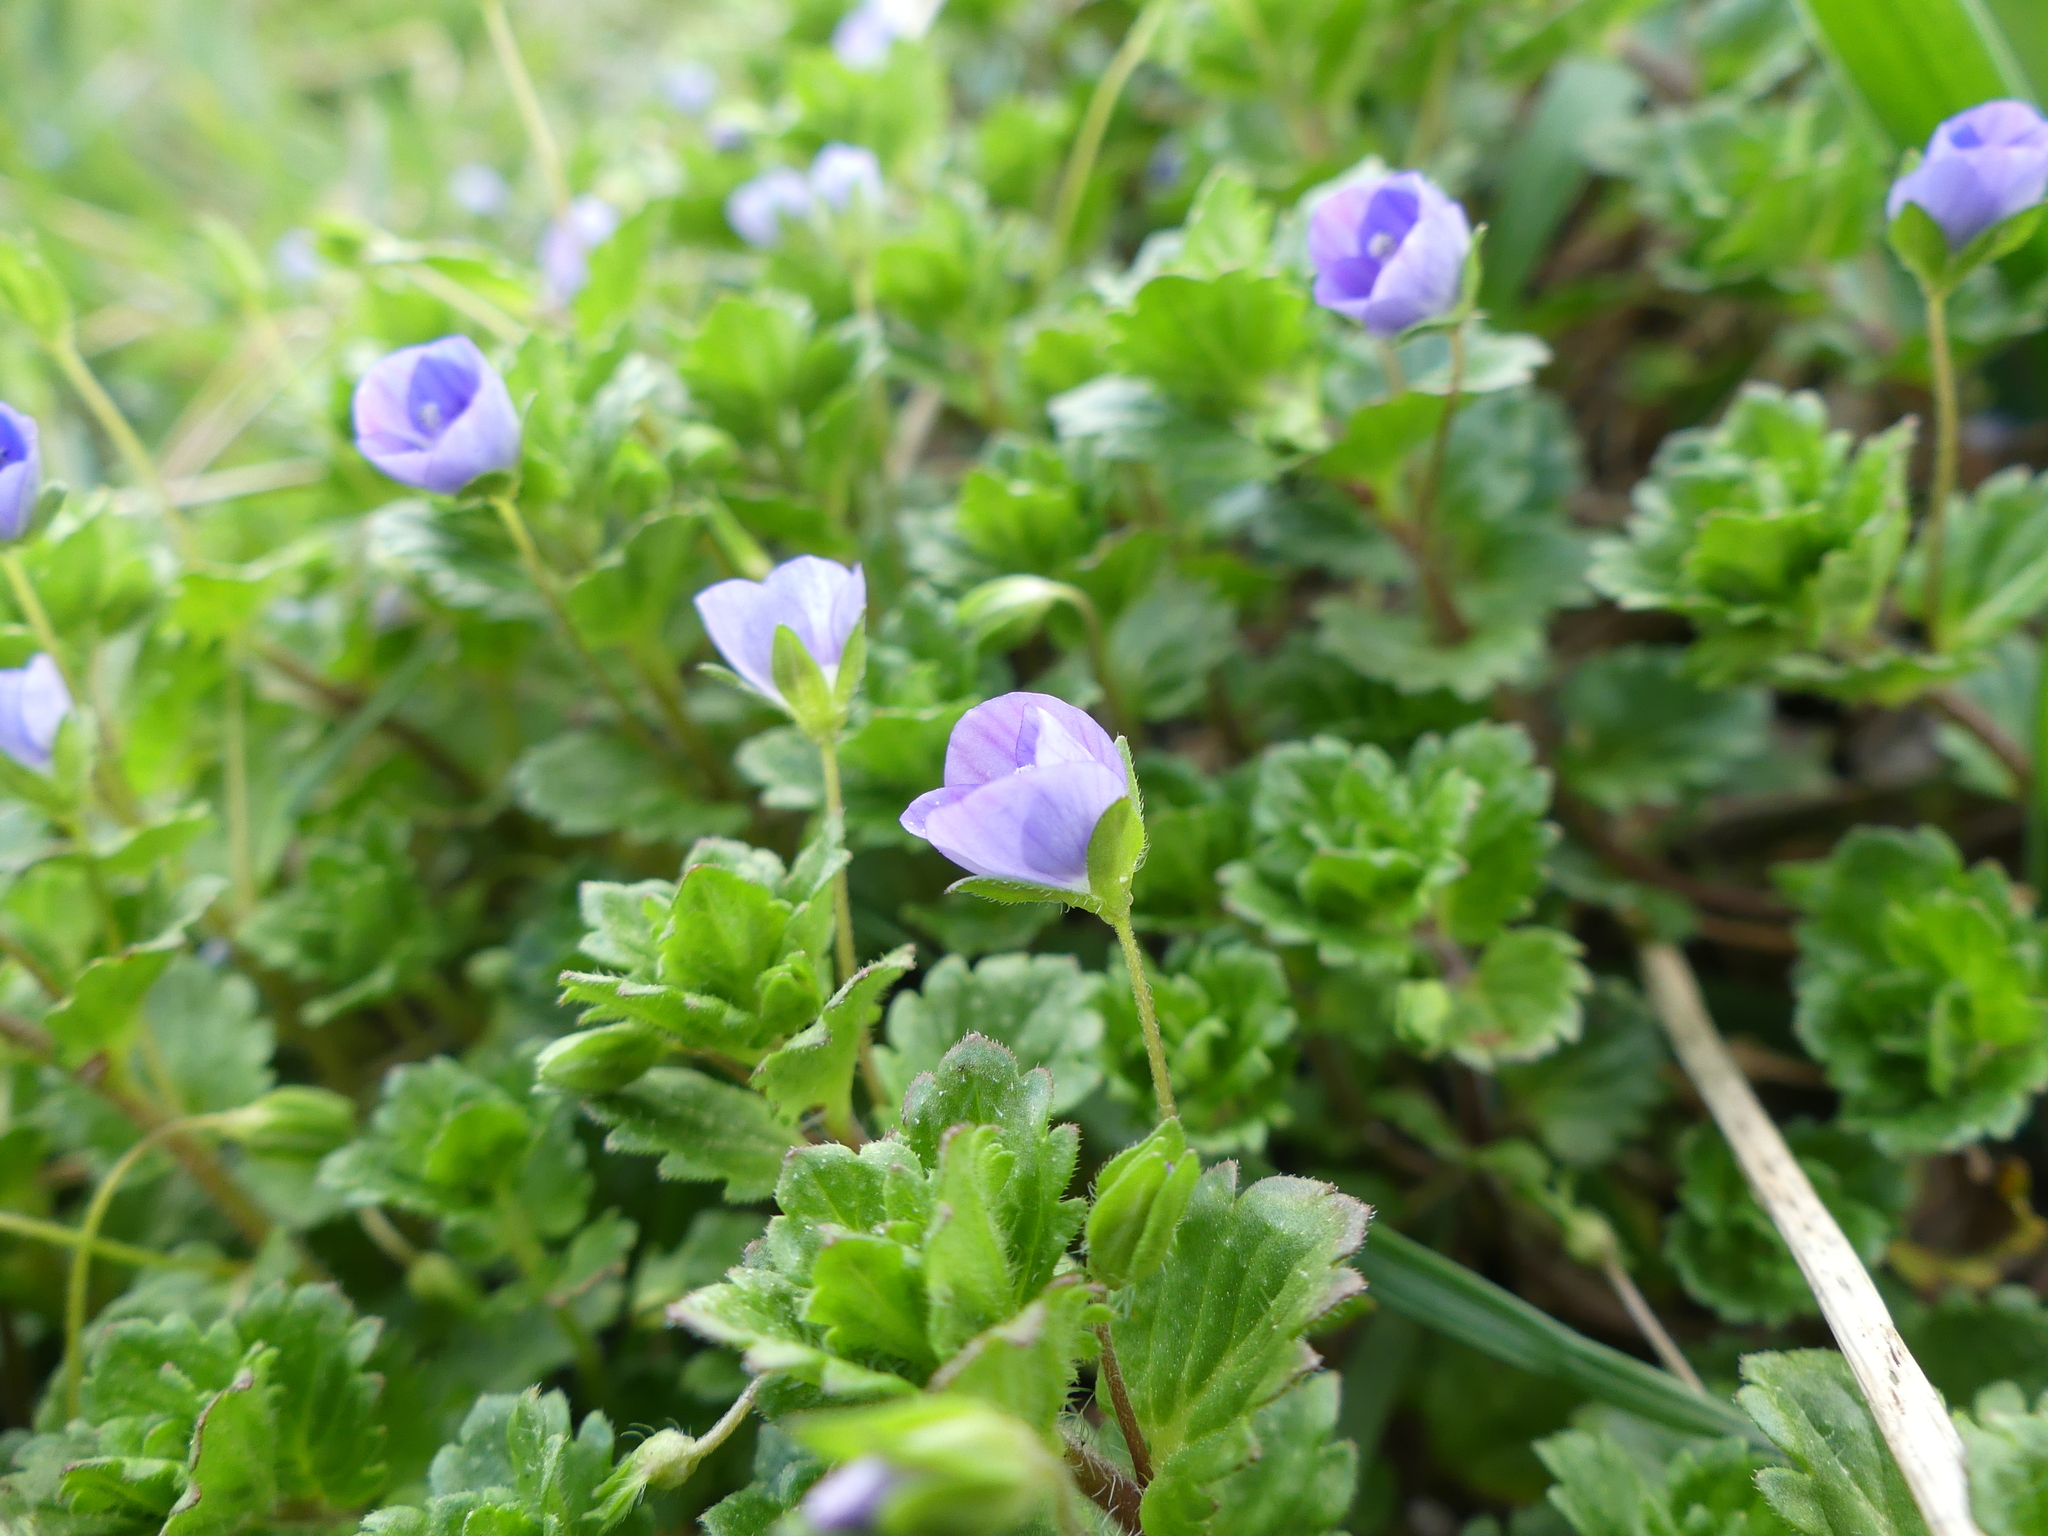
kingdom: Plantae
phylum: Tracheophyta
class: Magnoliopsida
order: Lamiales
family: Plantaginaceae
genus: Veronica
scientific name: Veronica persica
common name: Common field-speedwell
